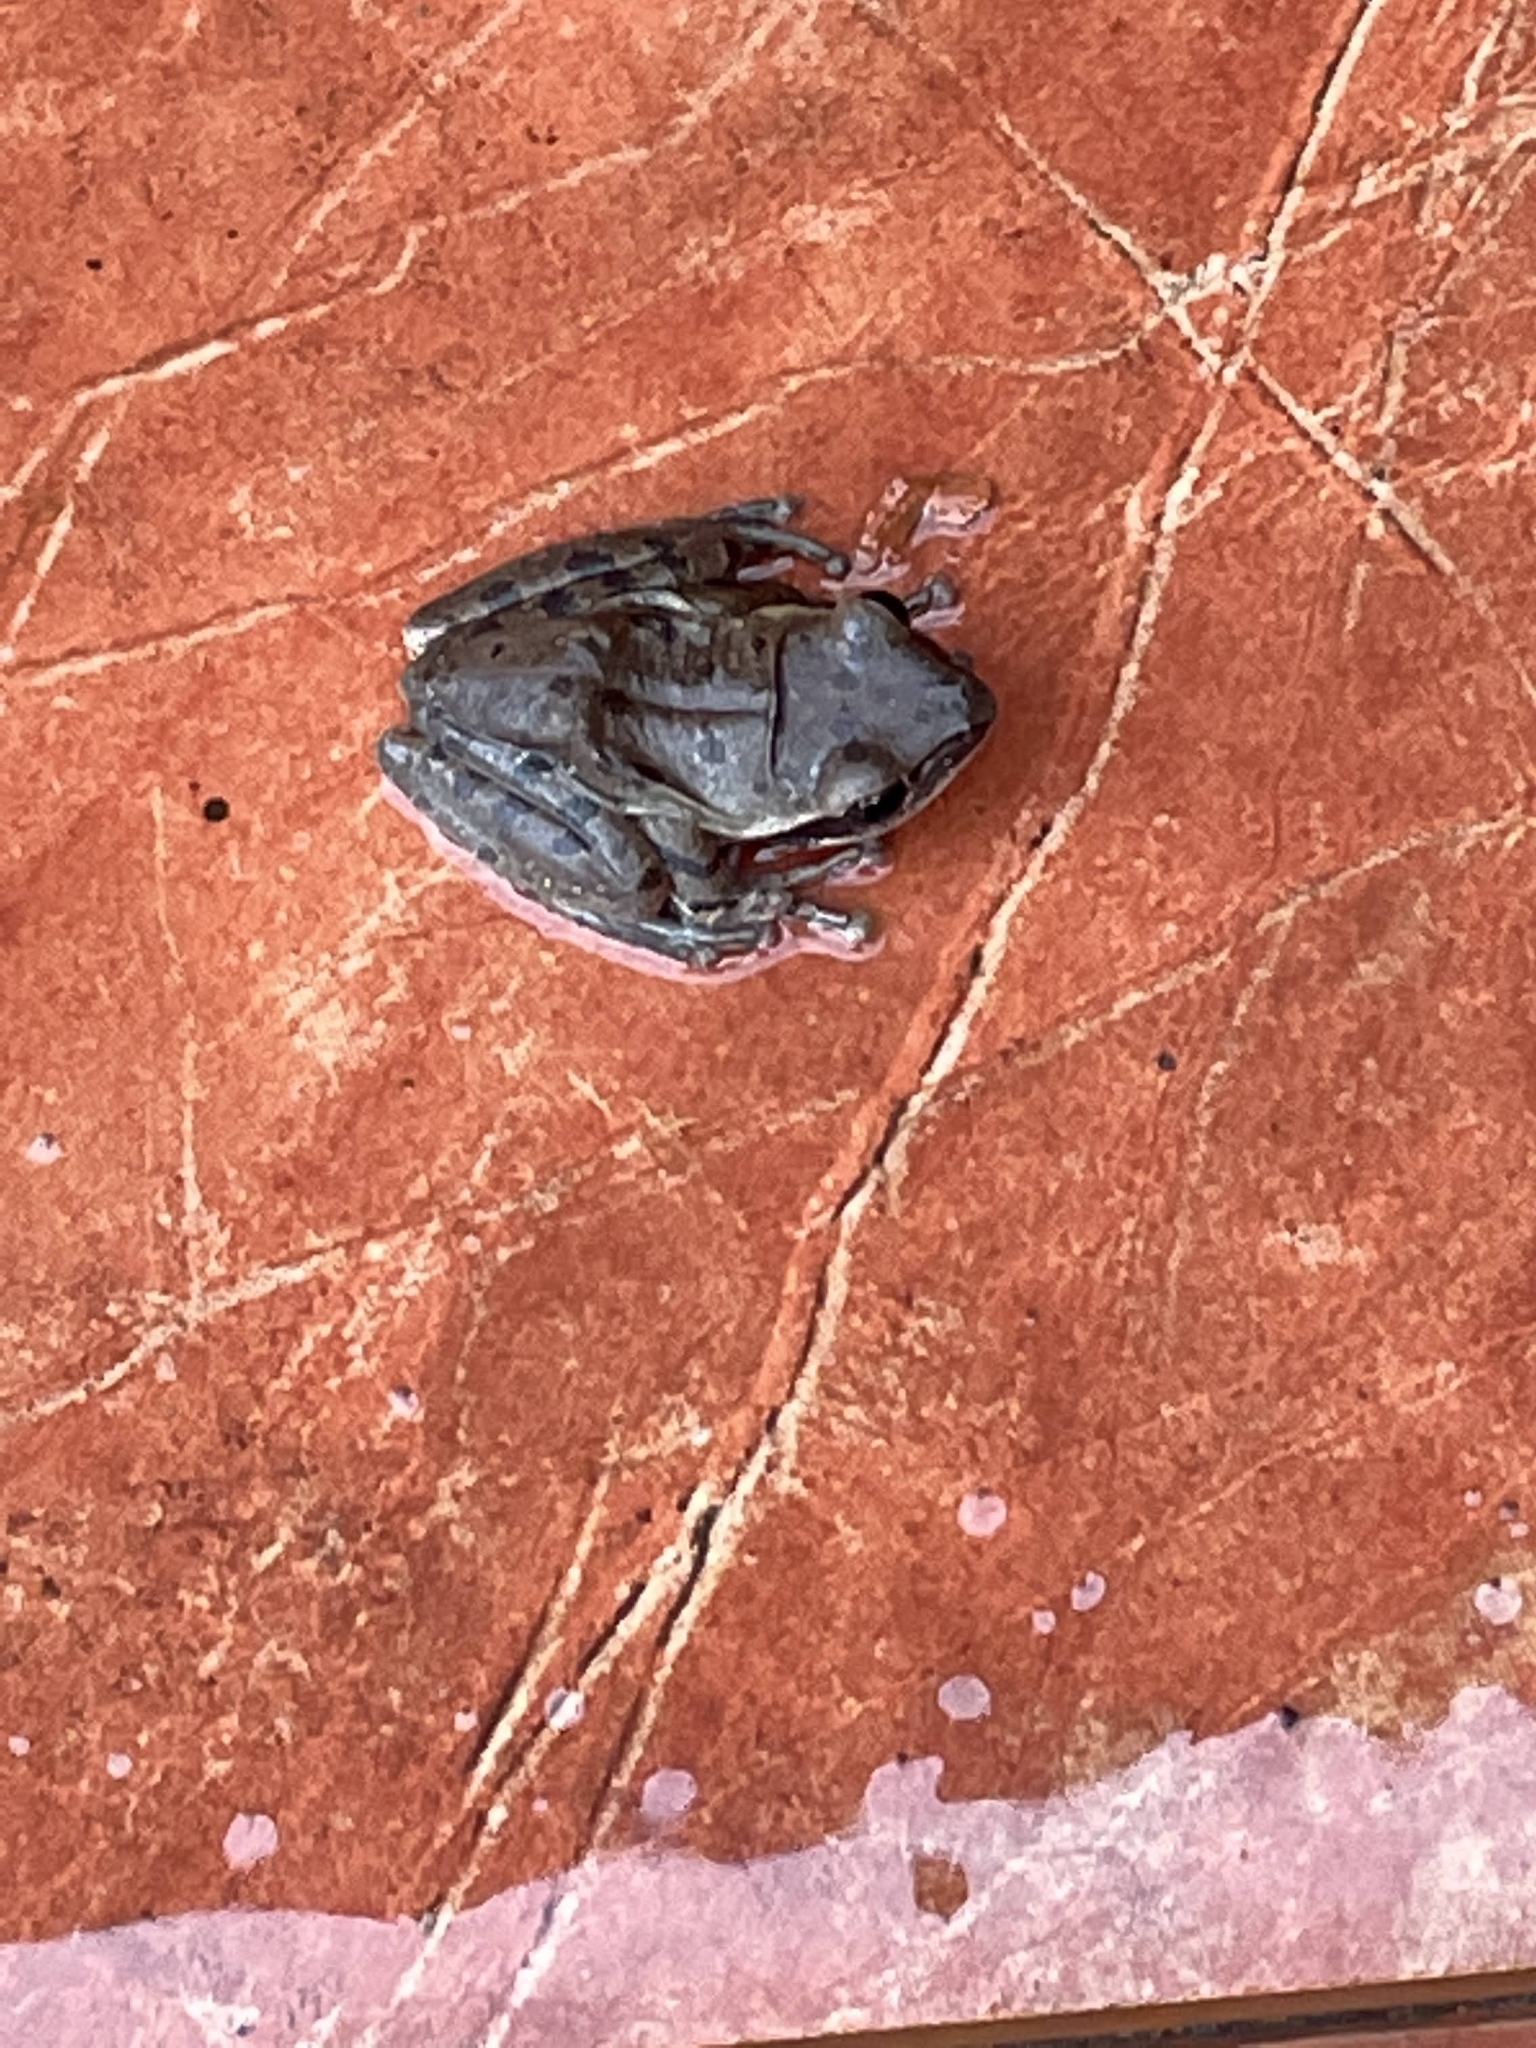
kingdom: Animalia
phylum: Chordata
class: Amphibia
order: Anura
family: Rhacophoridae
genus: Polypedates
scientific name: Polypedates maculatus
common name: Himalayan tree frog
